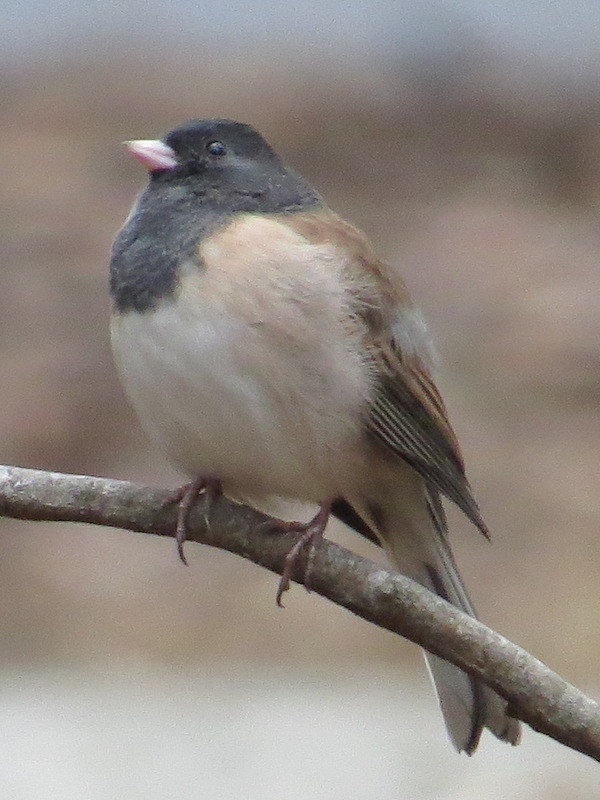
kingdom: Animalia
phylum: Chordata
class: Aves
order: Passeriformes
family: Passerellidae
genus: Junco
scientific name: Junco hyemalis
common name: Dark-eyed junco
